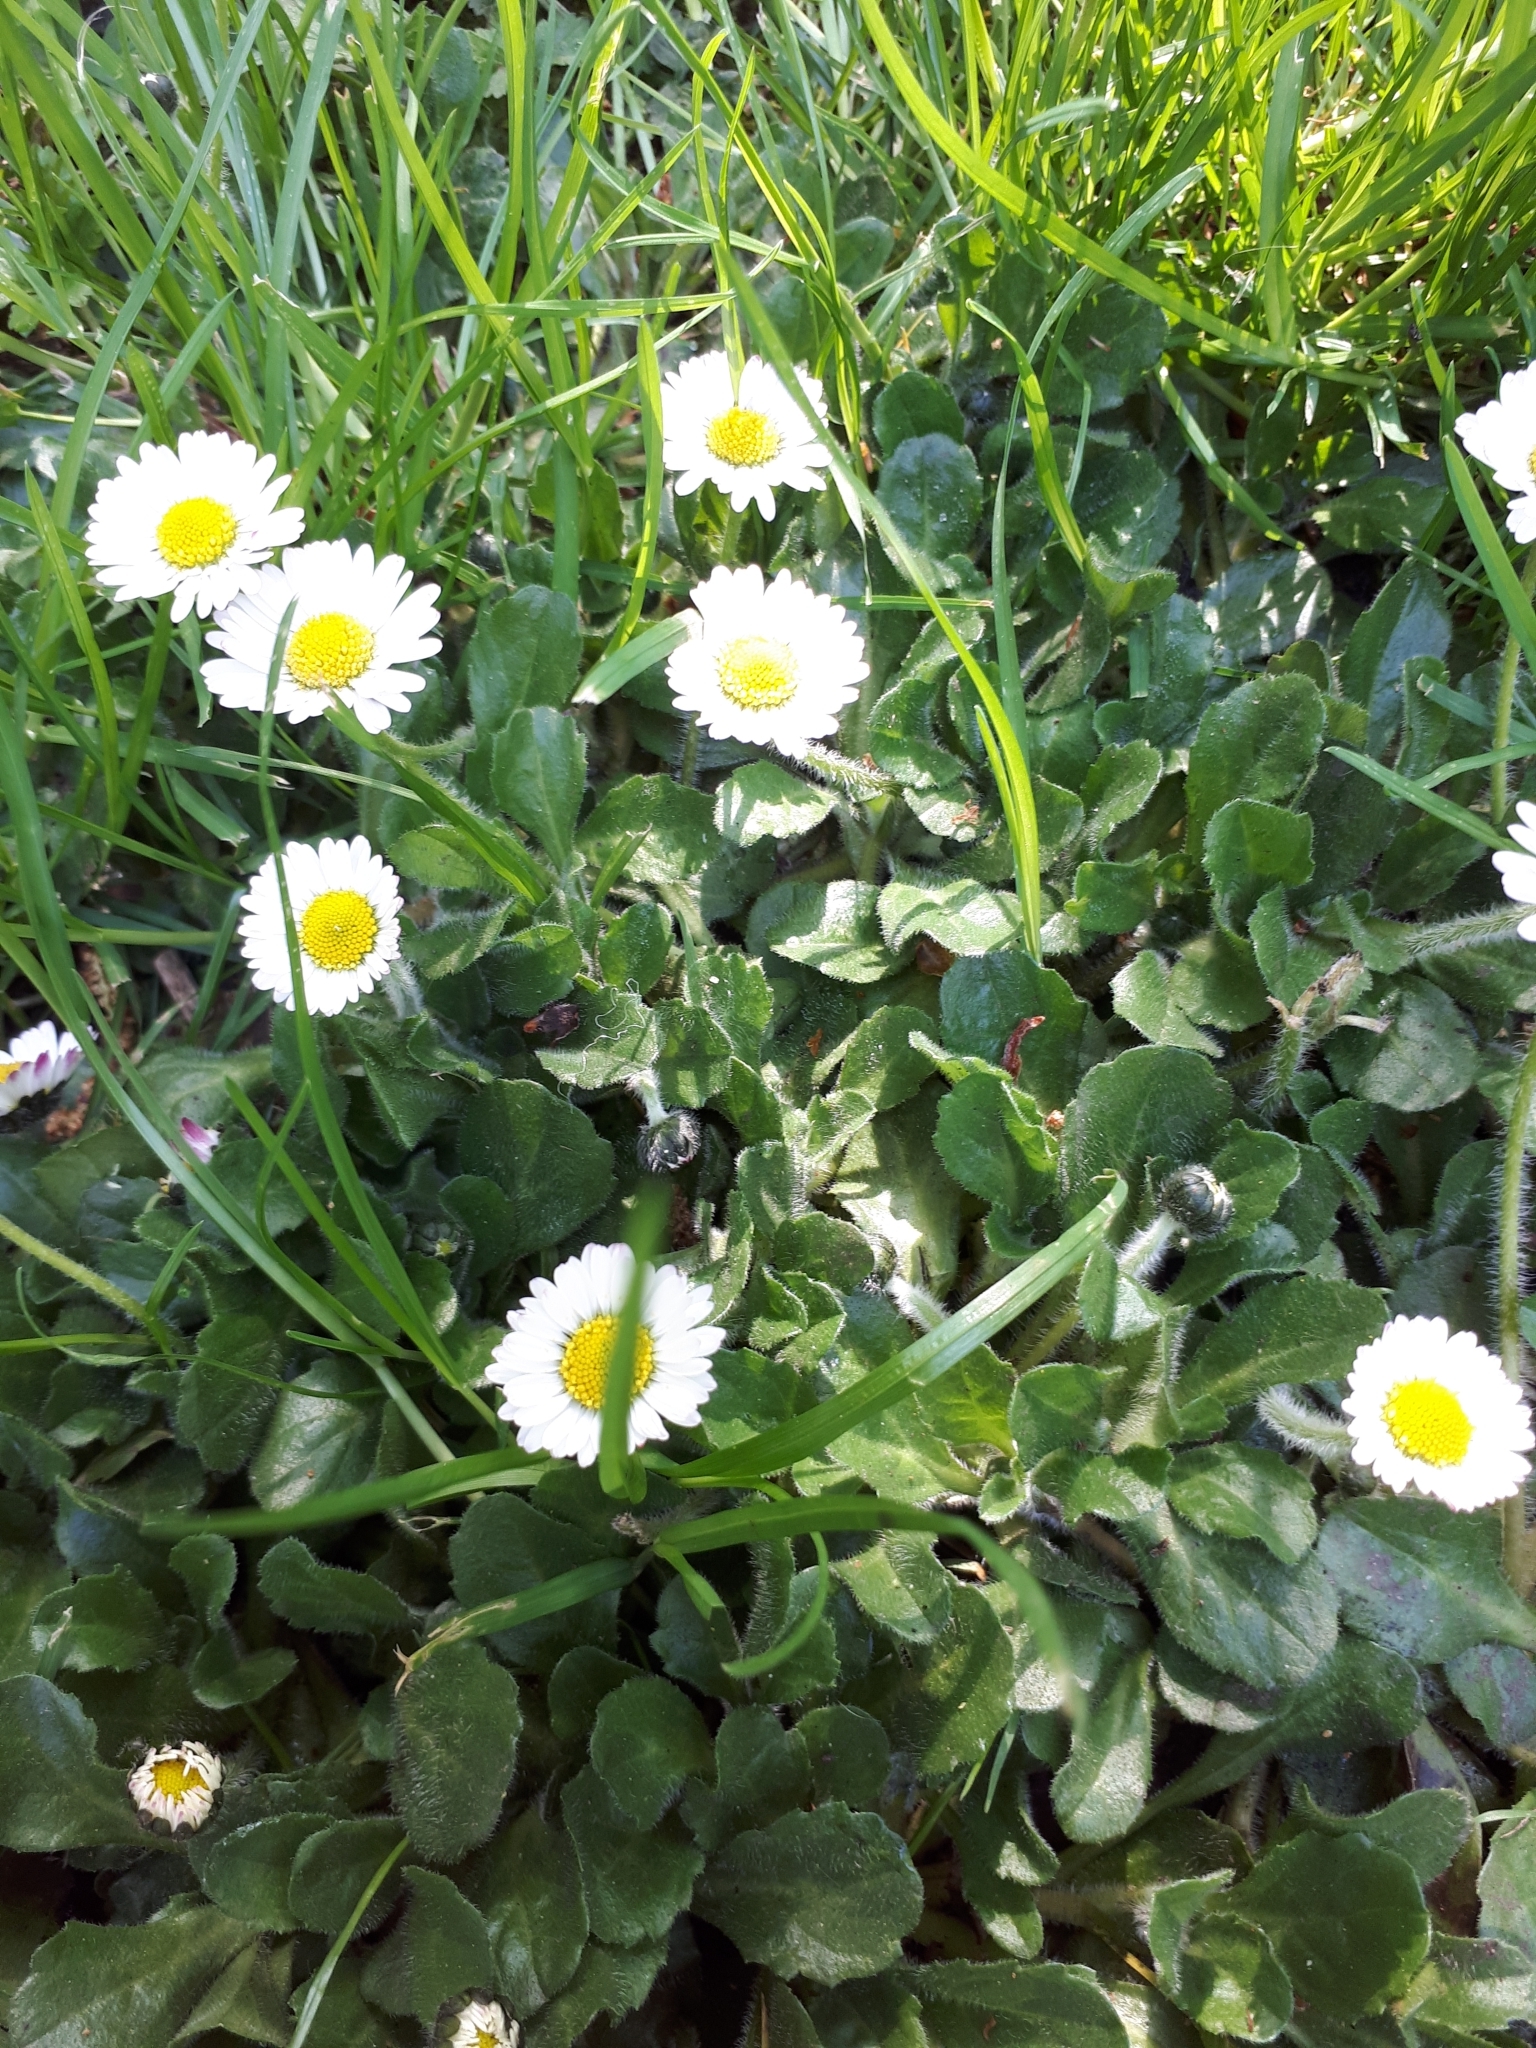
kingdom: Plantae
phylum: Tracheophyta
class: Magnoliopsida
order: Asterales
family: Asteraceae
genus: Bellis
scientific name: Bellis perennis
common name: Lawndaisy
